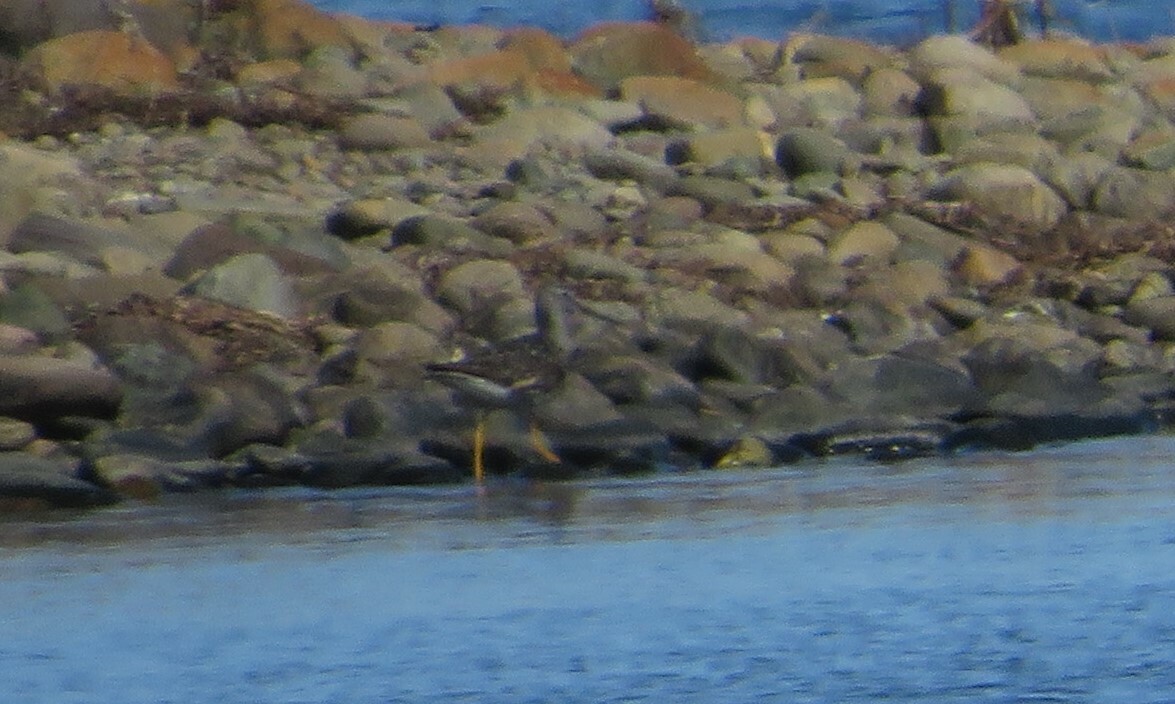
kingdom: Animalia
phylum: Chordata
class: Aves
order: Charadriiformes
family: Scolopacidae
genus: Tringa
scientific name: Tringa melanoleuca
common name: Greater yellowlegs
